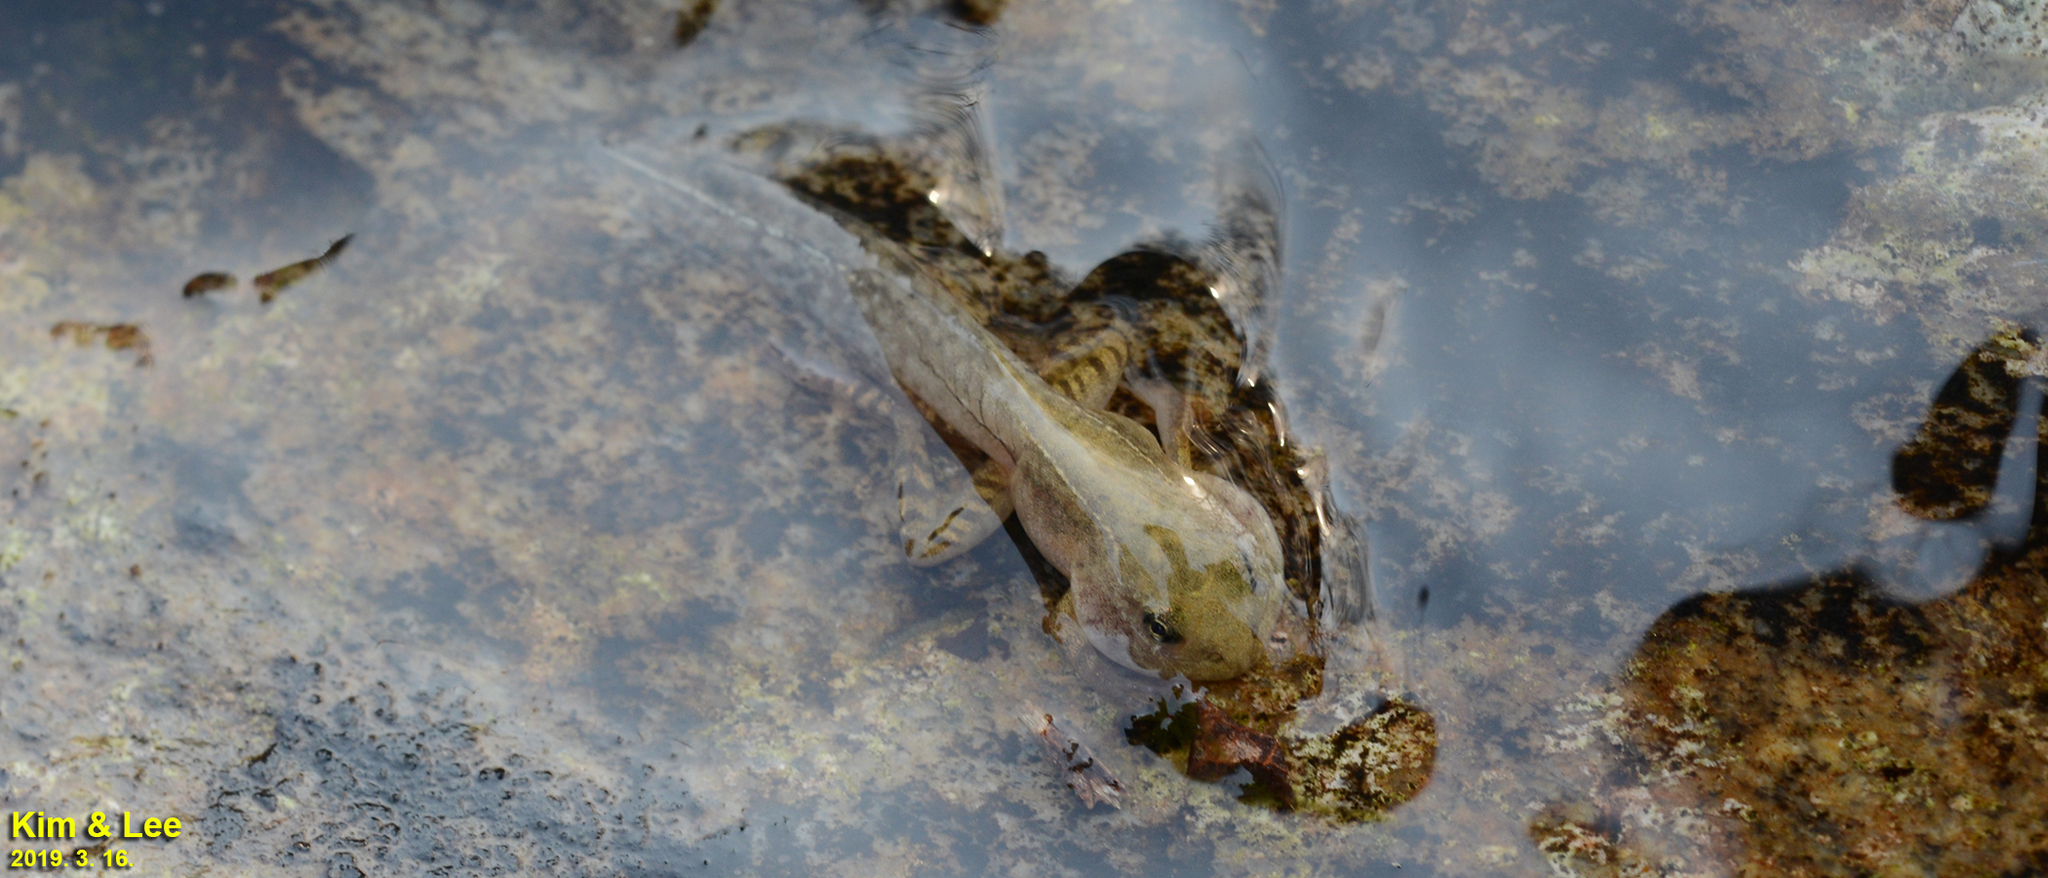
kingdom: Animalia
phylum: Chordata
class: Amphibia
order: Anura
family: Ranidae
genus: Rana
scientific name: Rana uenoi
